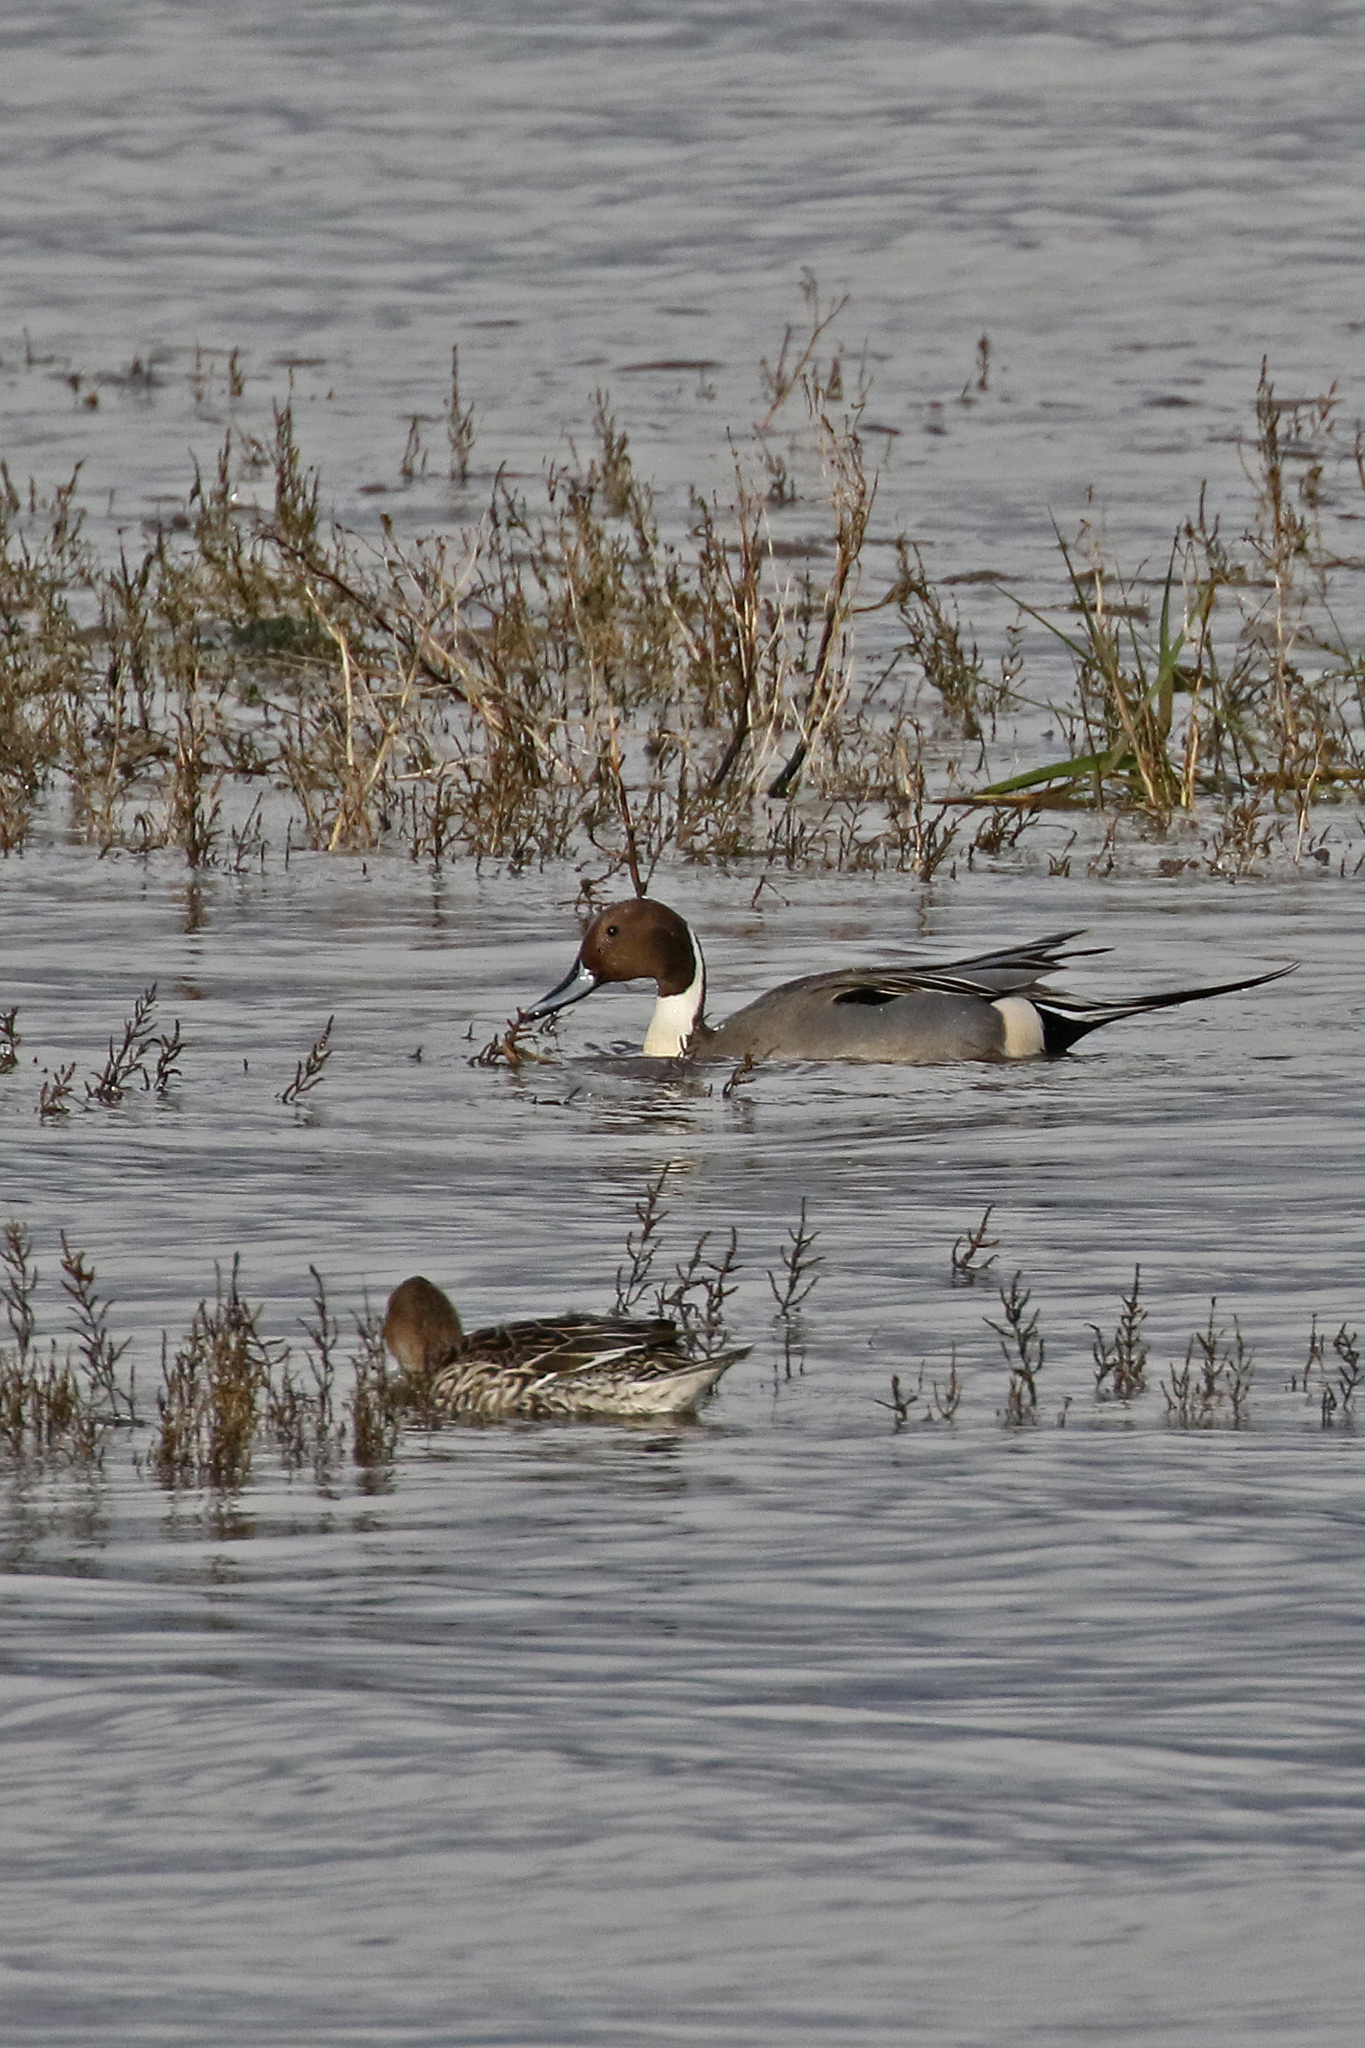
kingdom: Animalia
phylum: Chordata
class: Aves
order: Anseriformes
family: Anatidae
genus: Anas
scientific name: Anas acuta
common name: Northern pintail
